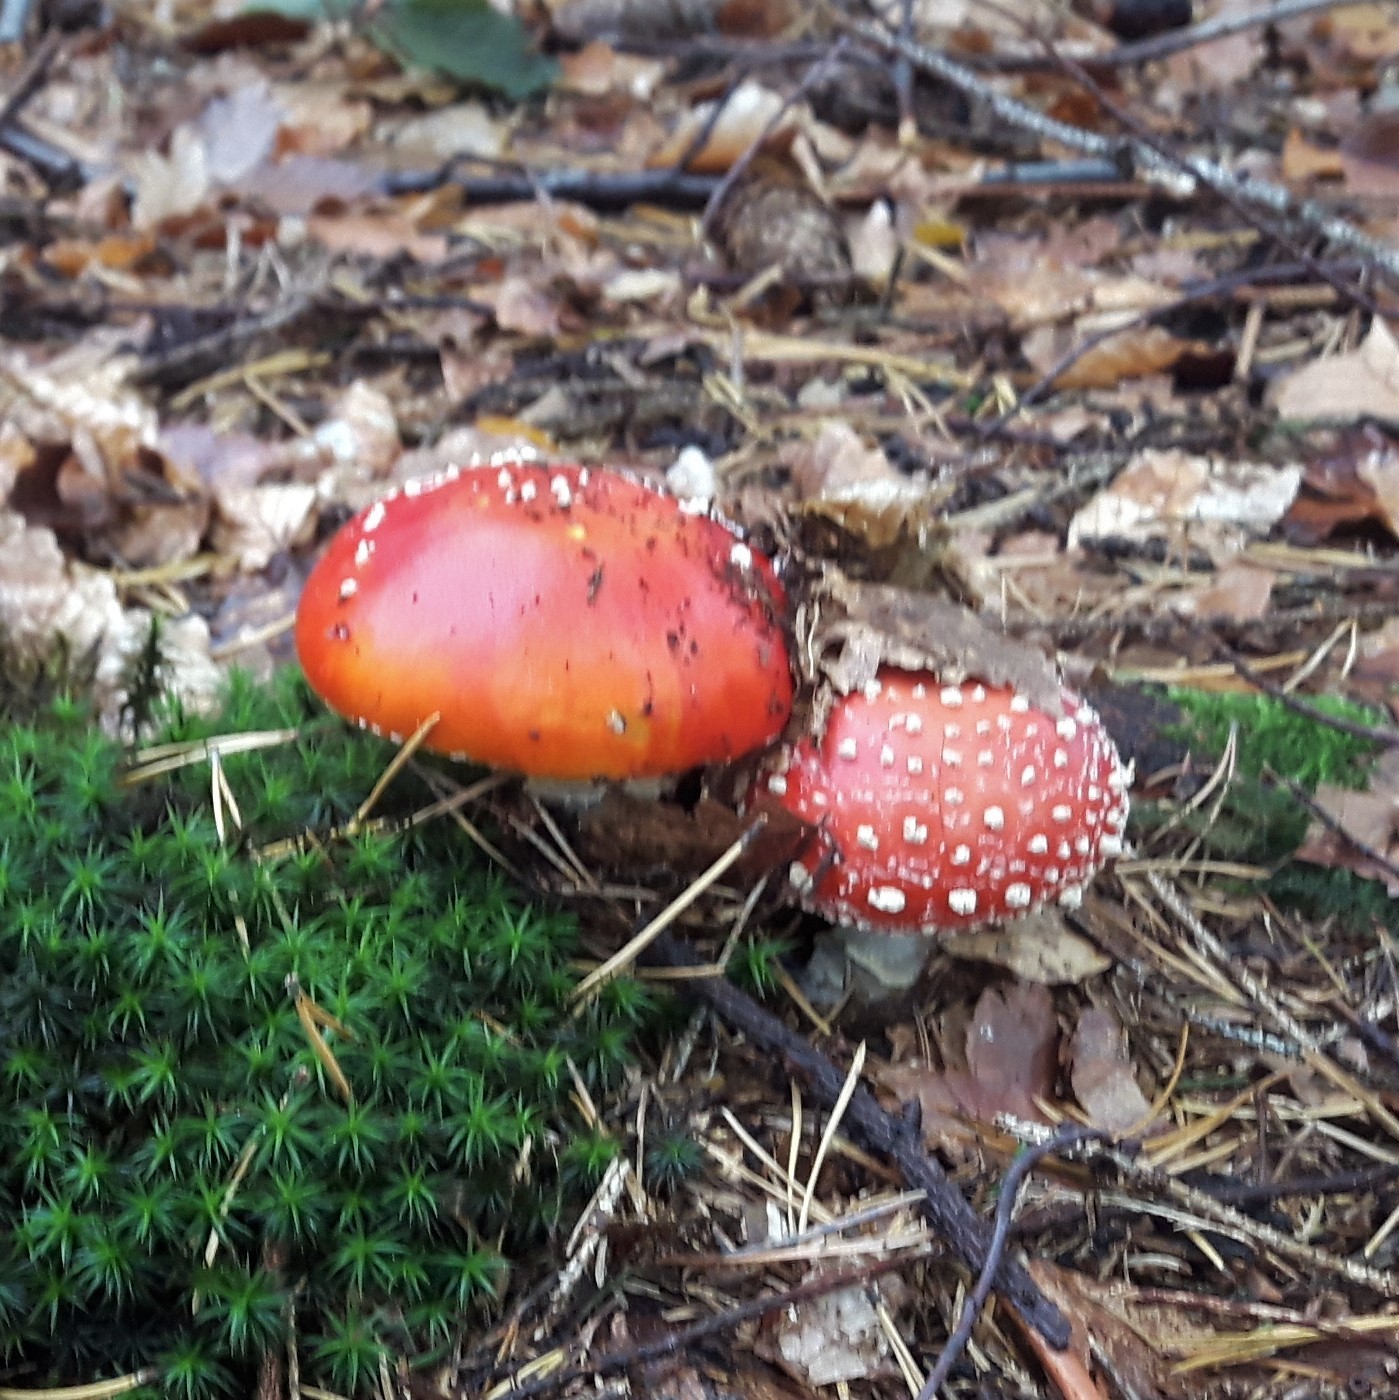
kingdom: Fungi
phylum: Basidiomycota
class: Agaricomycetes
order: Agaricales
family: Amanitaceae
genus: Amanita
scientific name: Amanita muscaria
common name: Fly agaric
